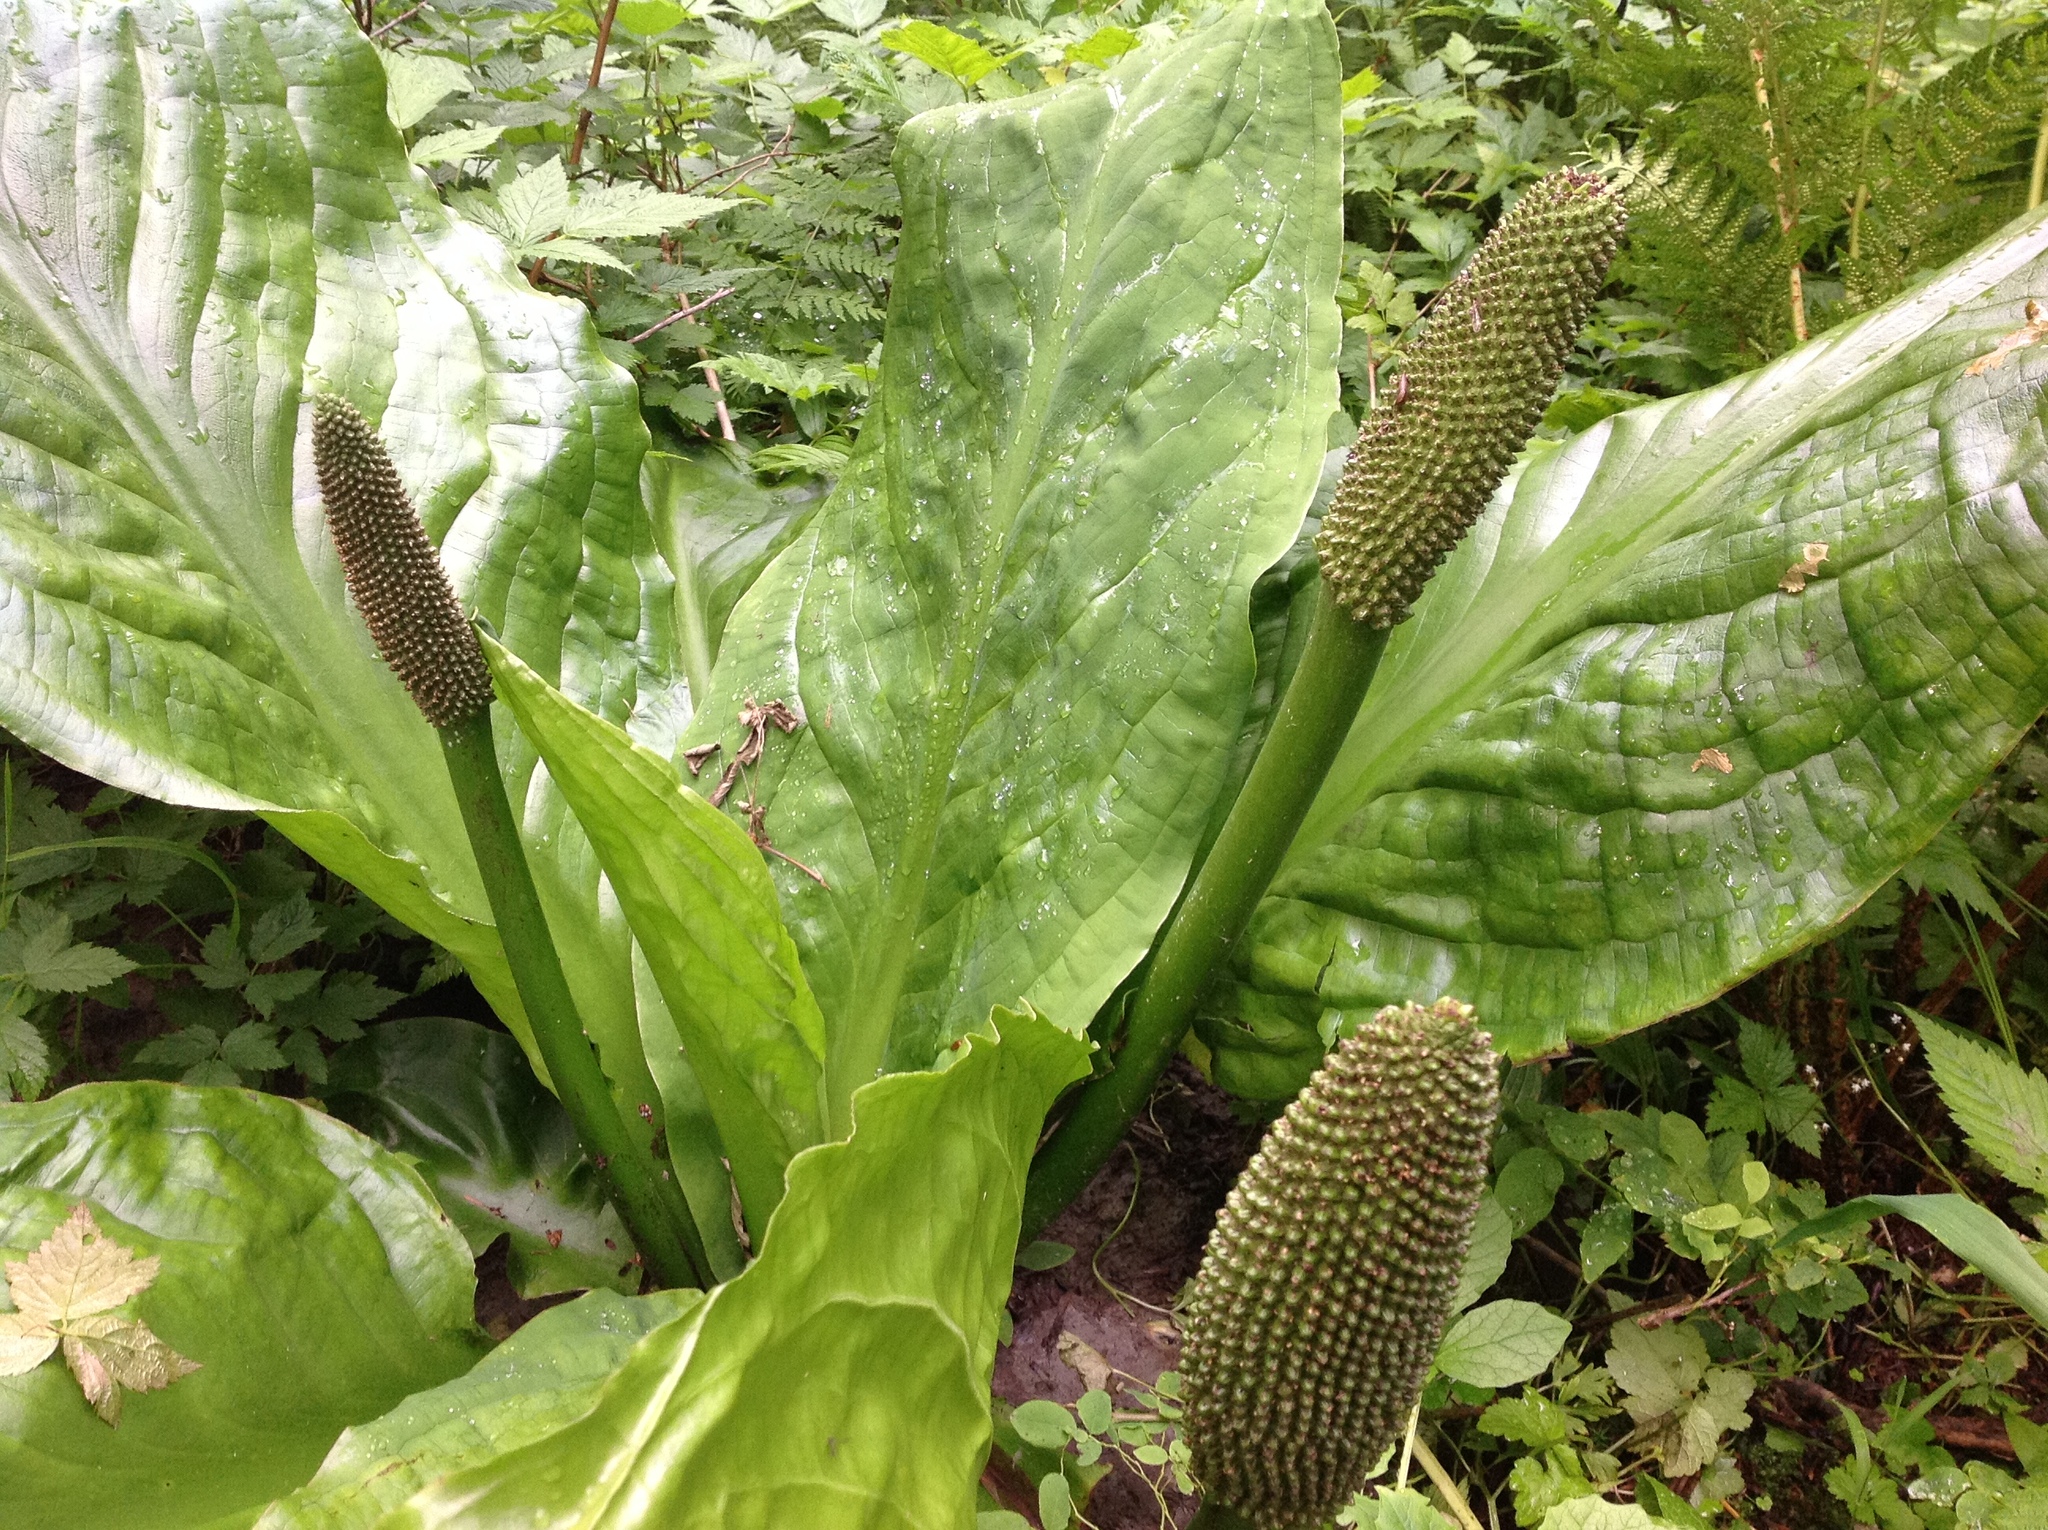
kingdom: Plantae
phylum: Tracheophyta
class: Liliopsida
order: Alismatales
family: Araceae
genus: Lysichiton
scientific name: Lysichiton americanus
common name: American skunk cabbage
